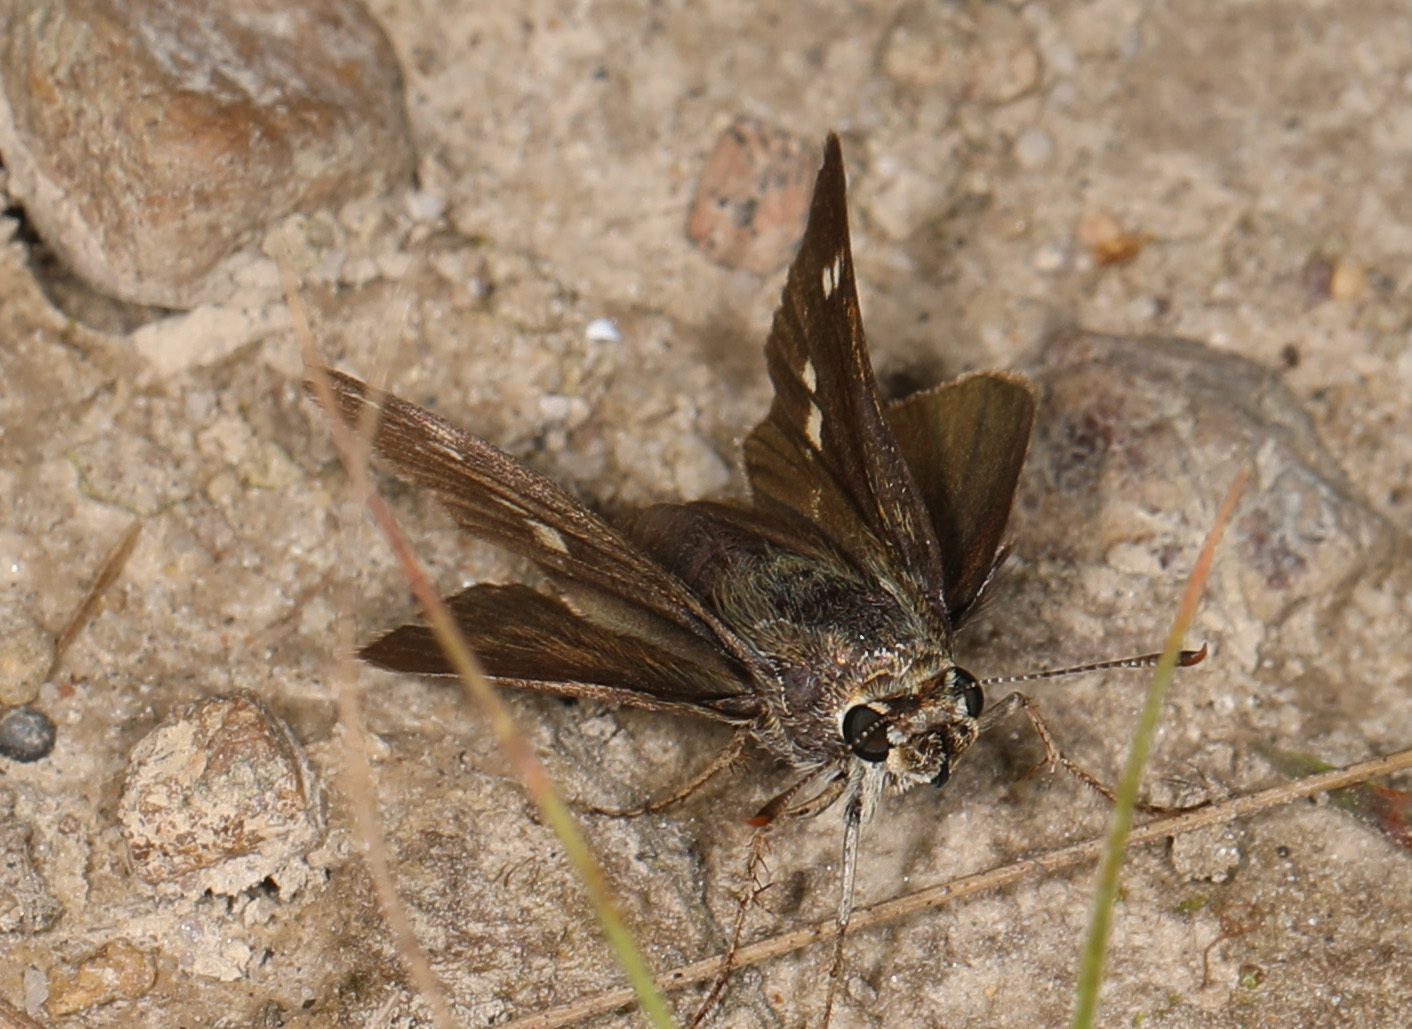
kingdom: Animalia
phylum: Arthropoda
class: Insecta
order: Lepidoptera
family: Hesperiidae
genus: Vernia
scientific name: Vernia verna
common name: Little glassywing
